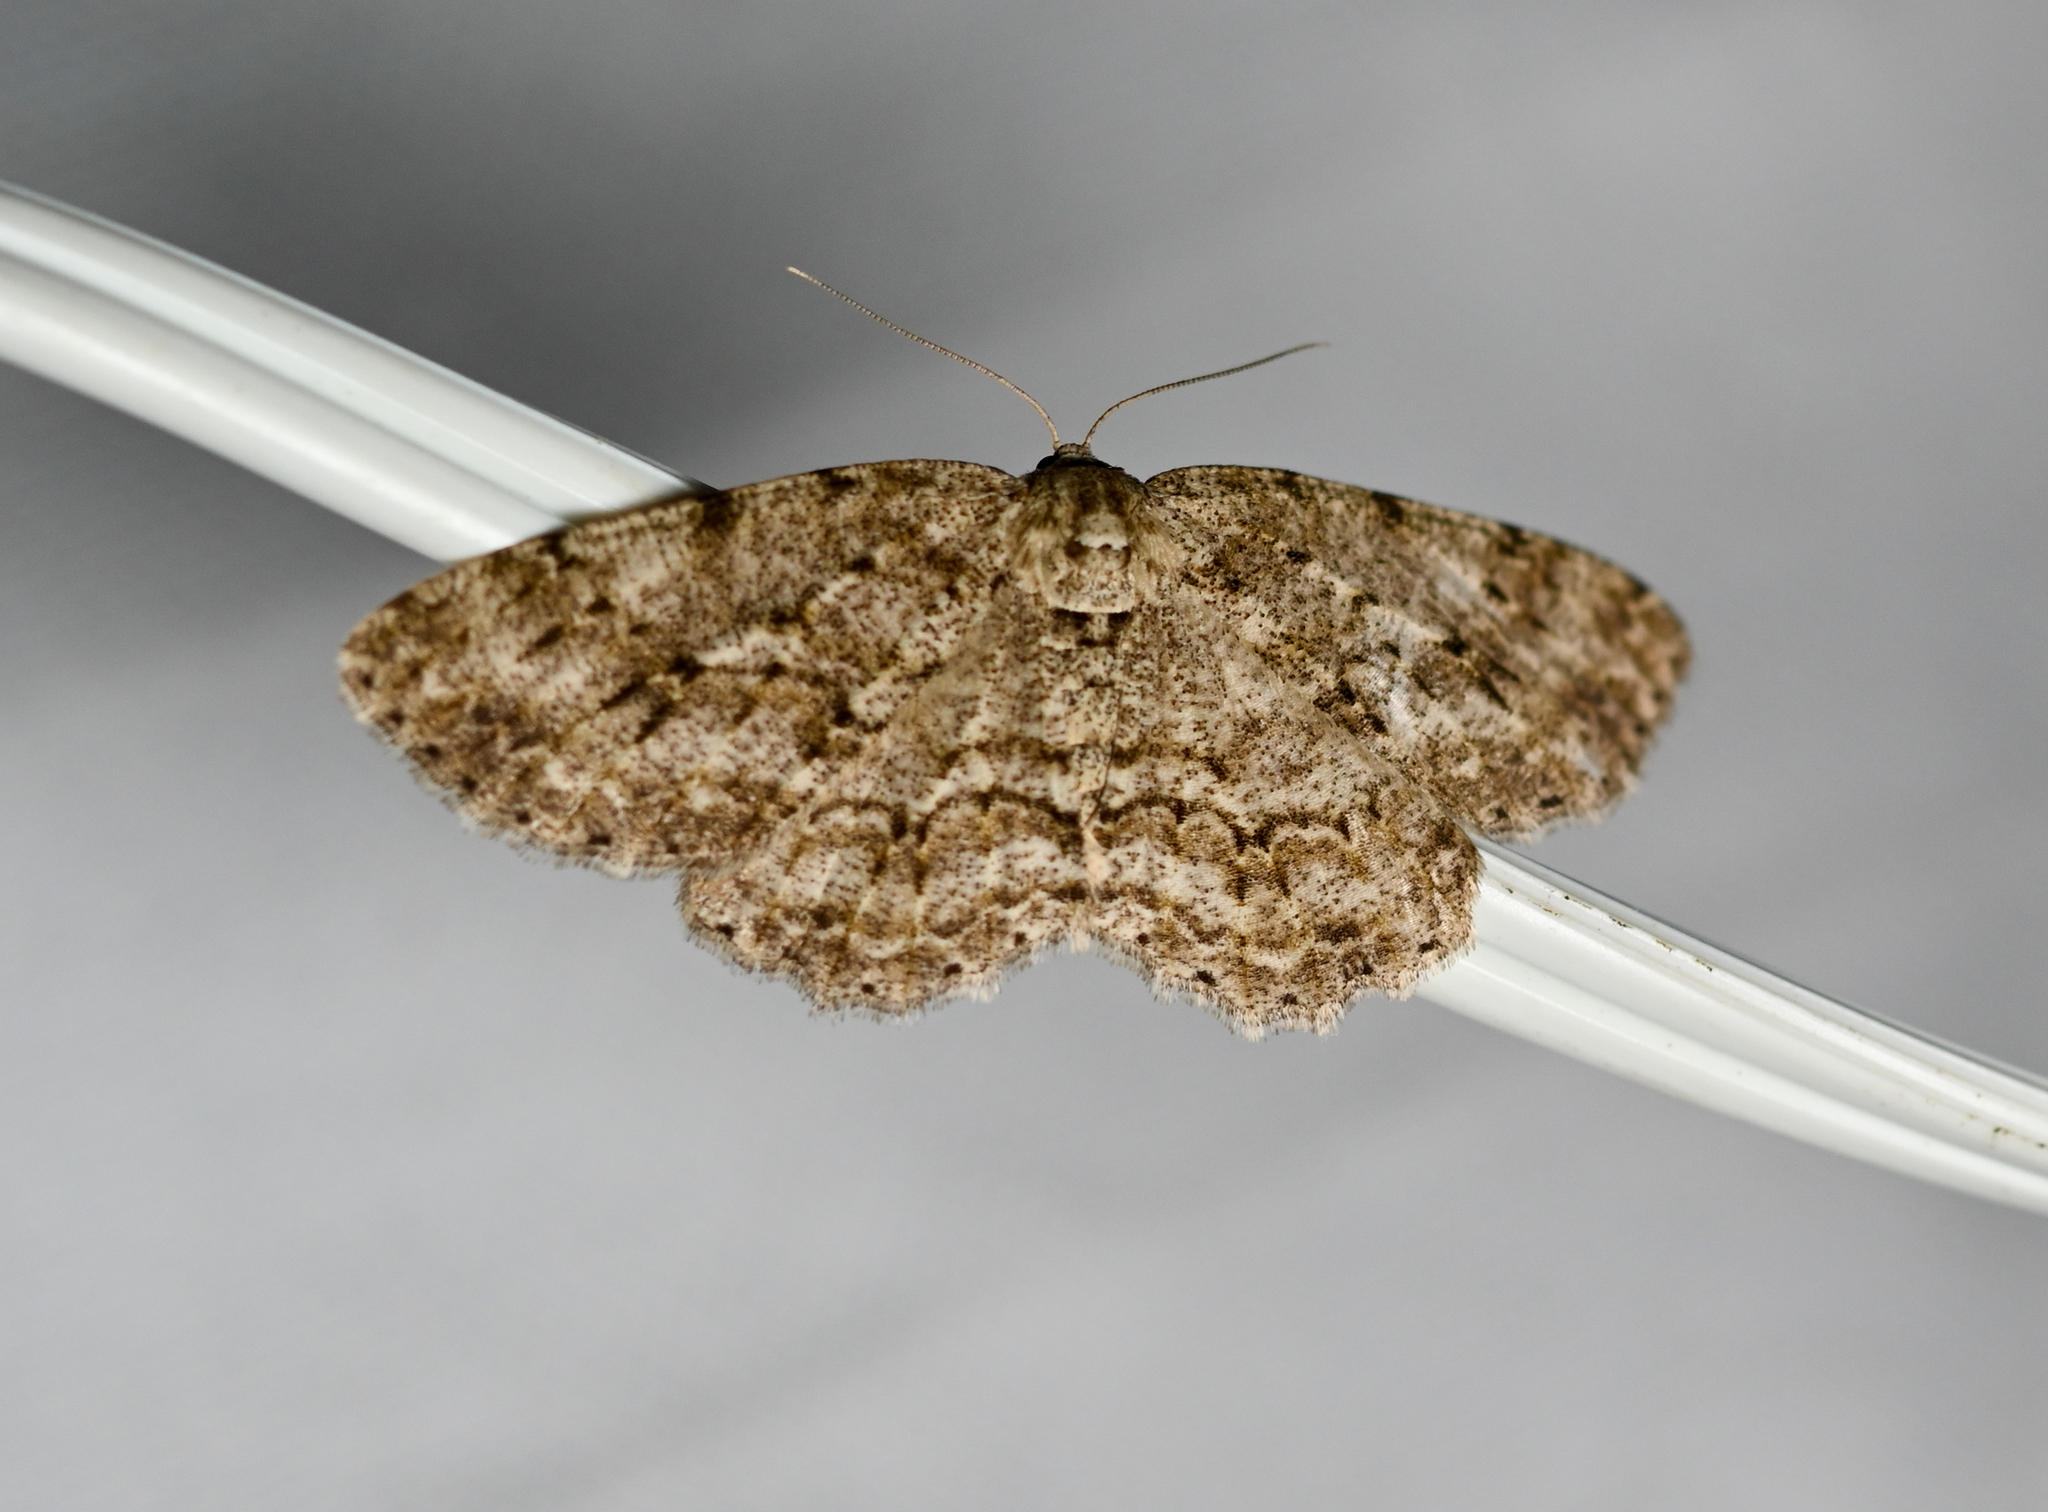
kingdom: Animalia
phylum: Arthropoda
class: Insecta
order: Lepidoptera
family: Geometridae
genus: Ectropis
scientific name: Ectropis crepuscularia
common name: Engrailed
